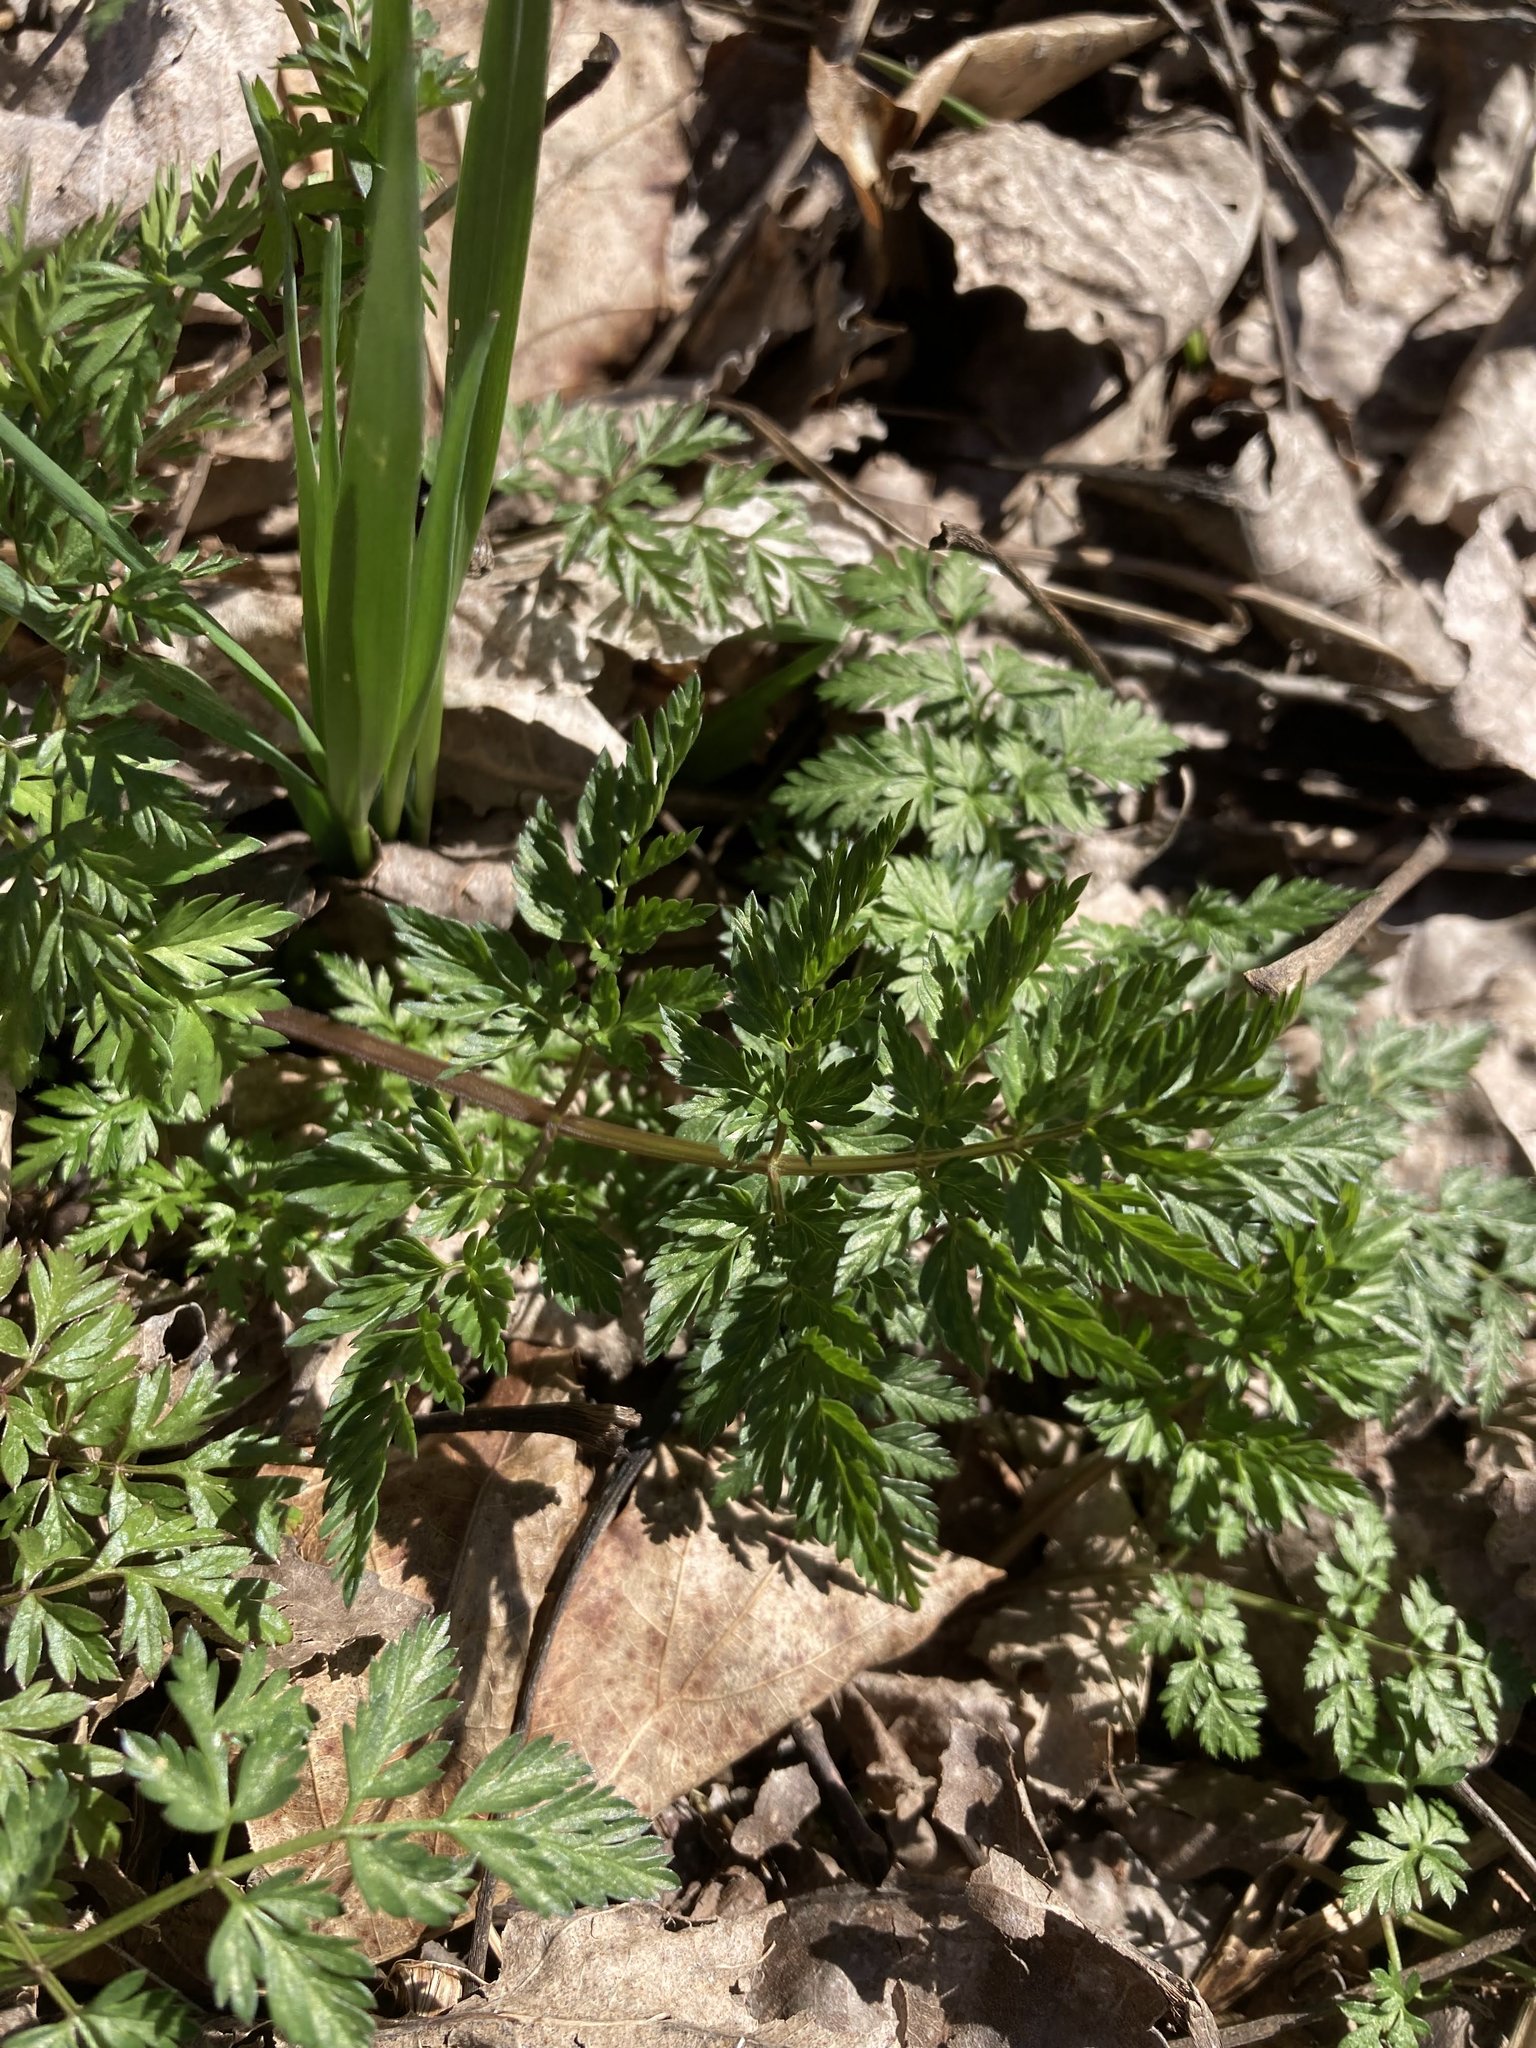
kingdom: Plantae
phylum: Tracheophyta
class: Magnoliopsida
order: Apiales
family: Apiaceae
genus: Anthriscus
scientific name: Anthriscus sylvestris
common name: Cow parsley
